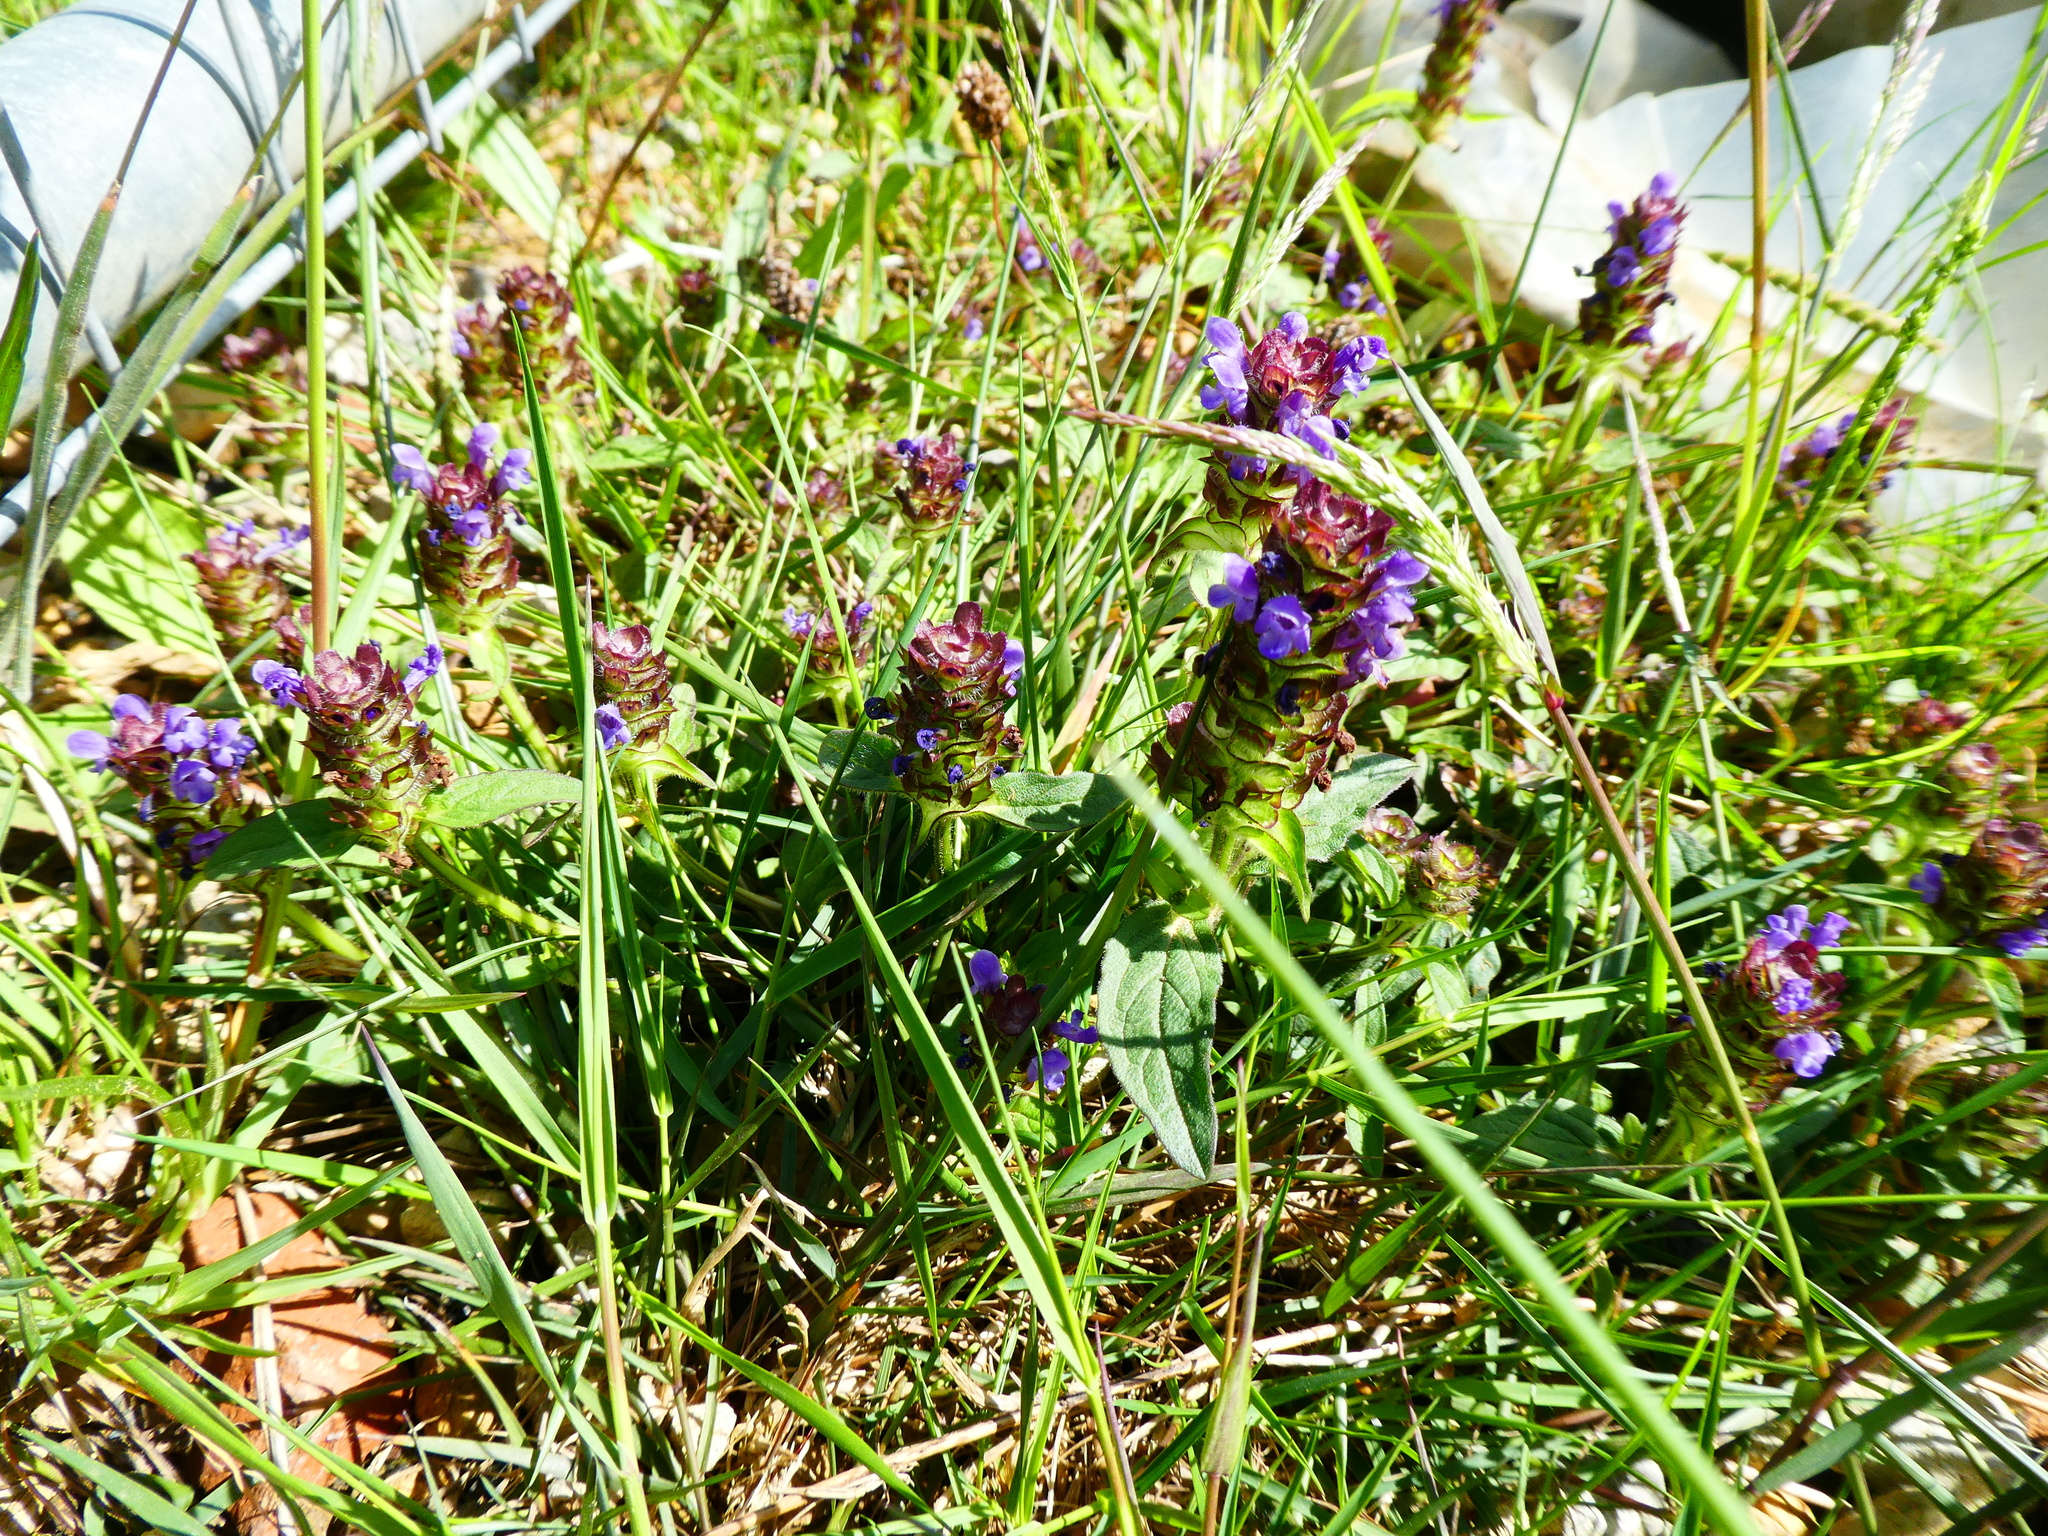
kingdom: Plantae
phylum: Tracheophyta
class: Magnoliopsida
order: Lamiales
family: Lamiaceae
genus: Prunella
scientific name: Prunella vulgaris
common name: Heal-all
